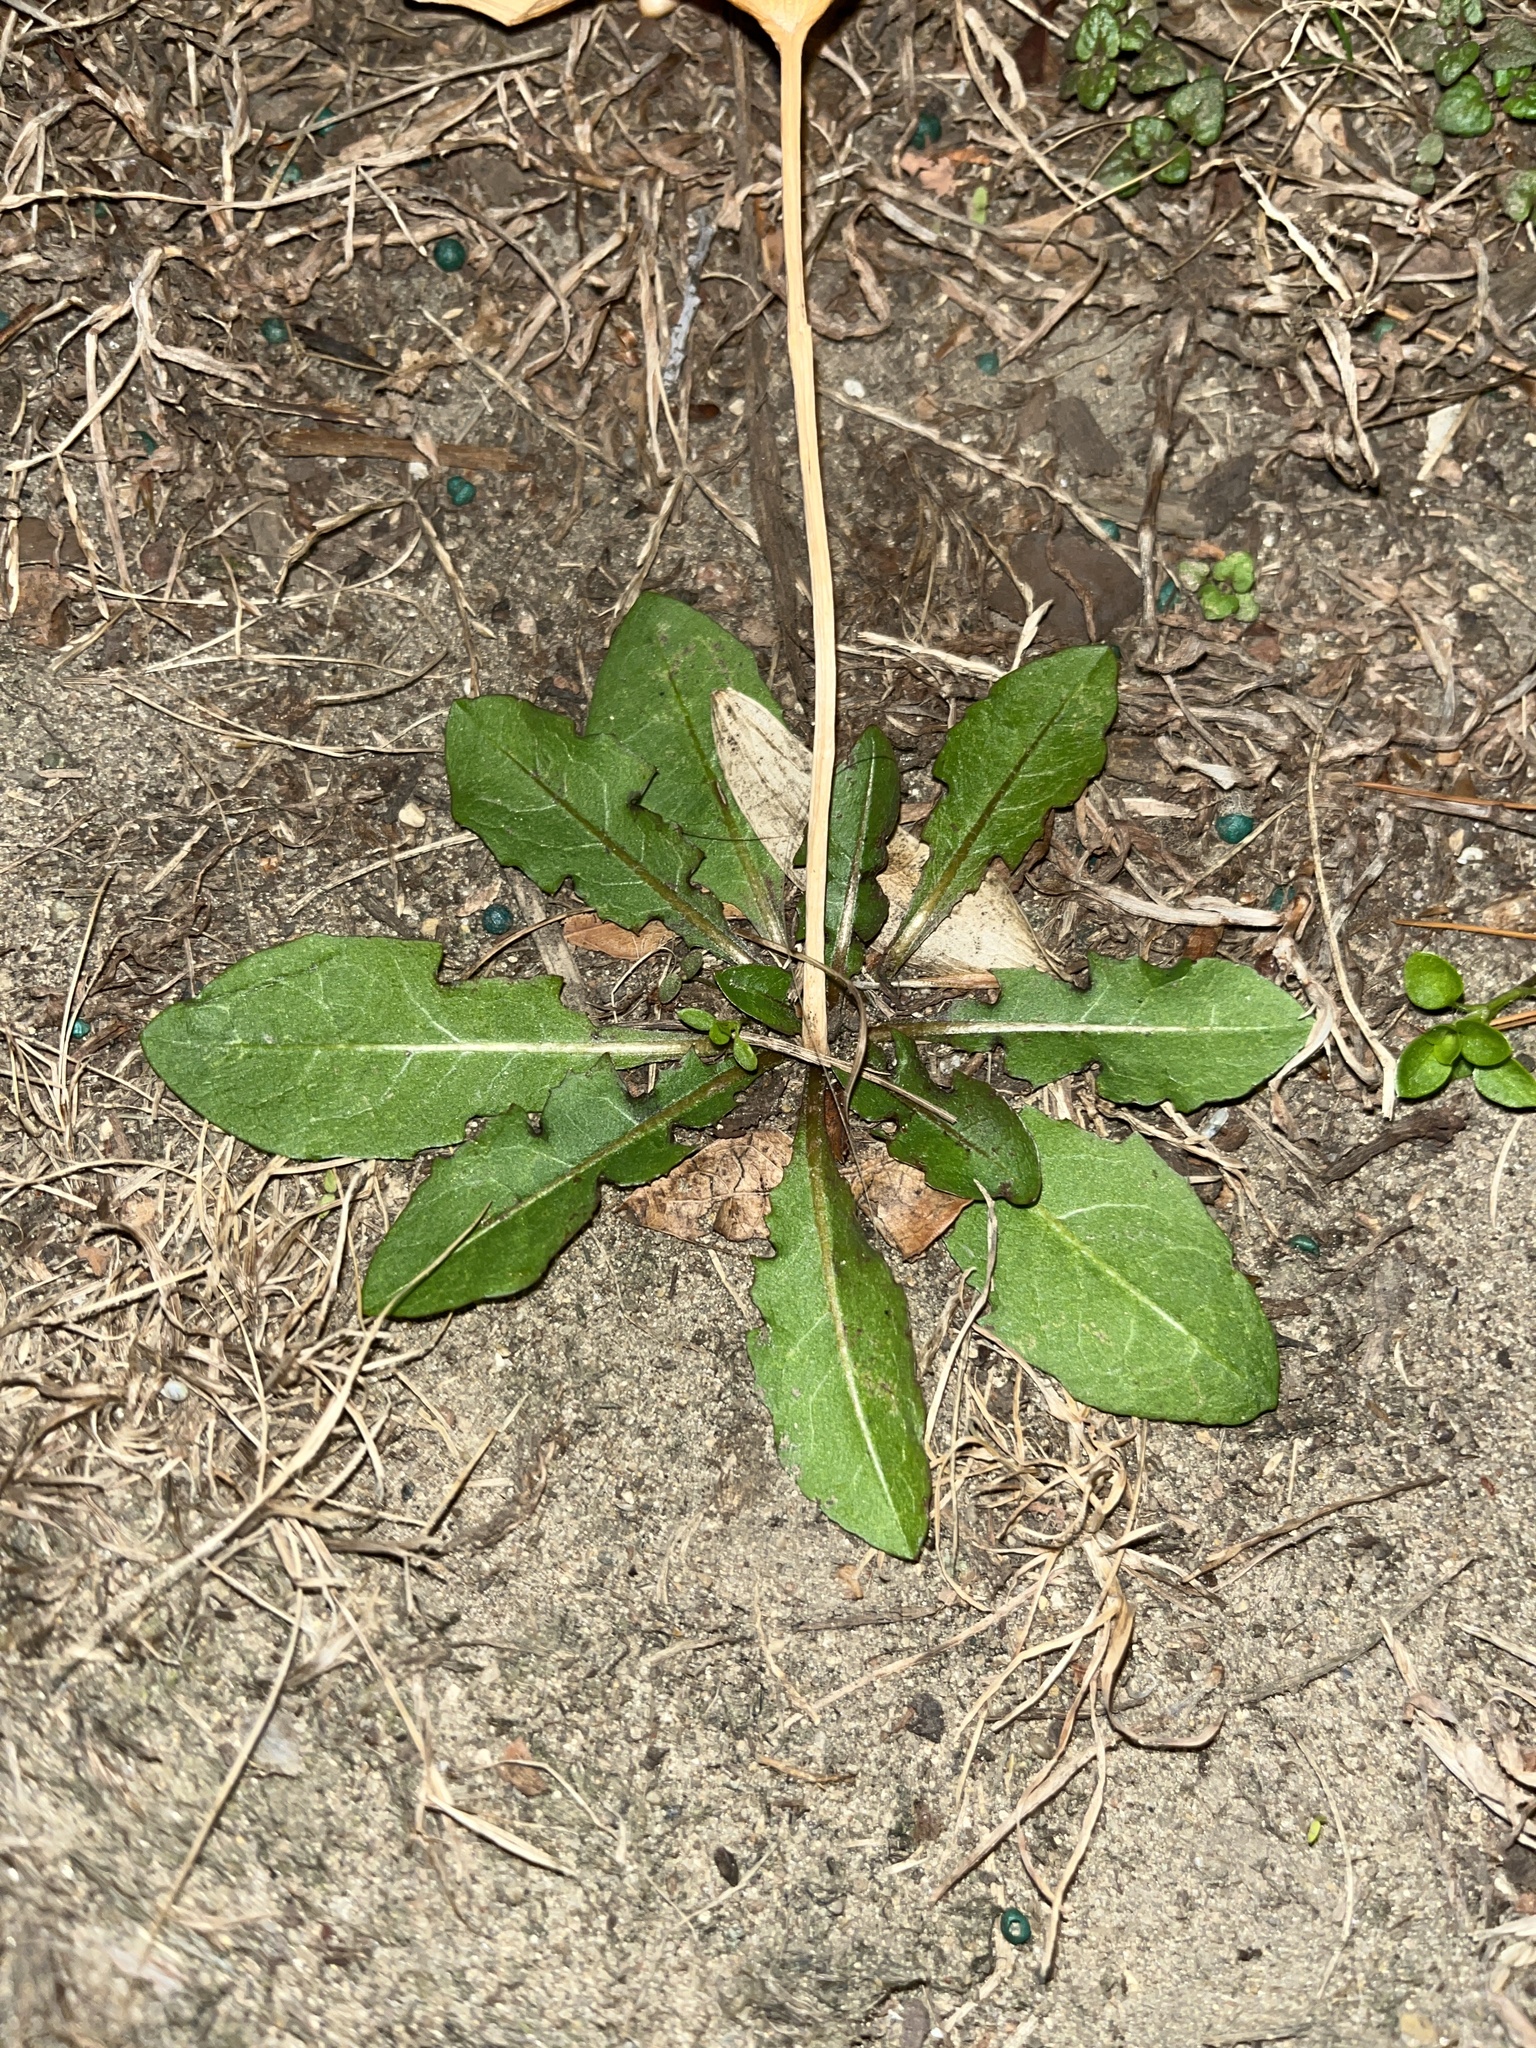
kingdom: Plantae
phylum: Tracheophyta
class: Magnoliopsida
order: Asterales
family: Asteraceae
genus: Taraxacum
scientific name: Taraxacum officinale
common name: Common dandelion
